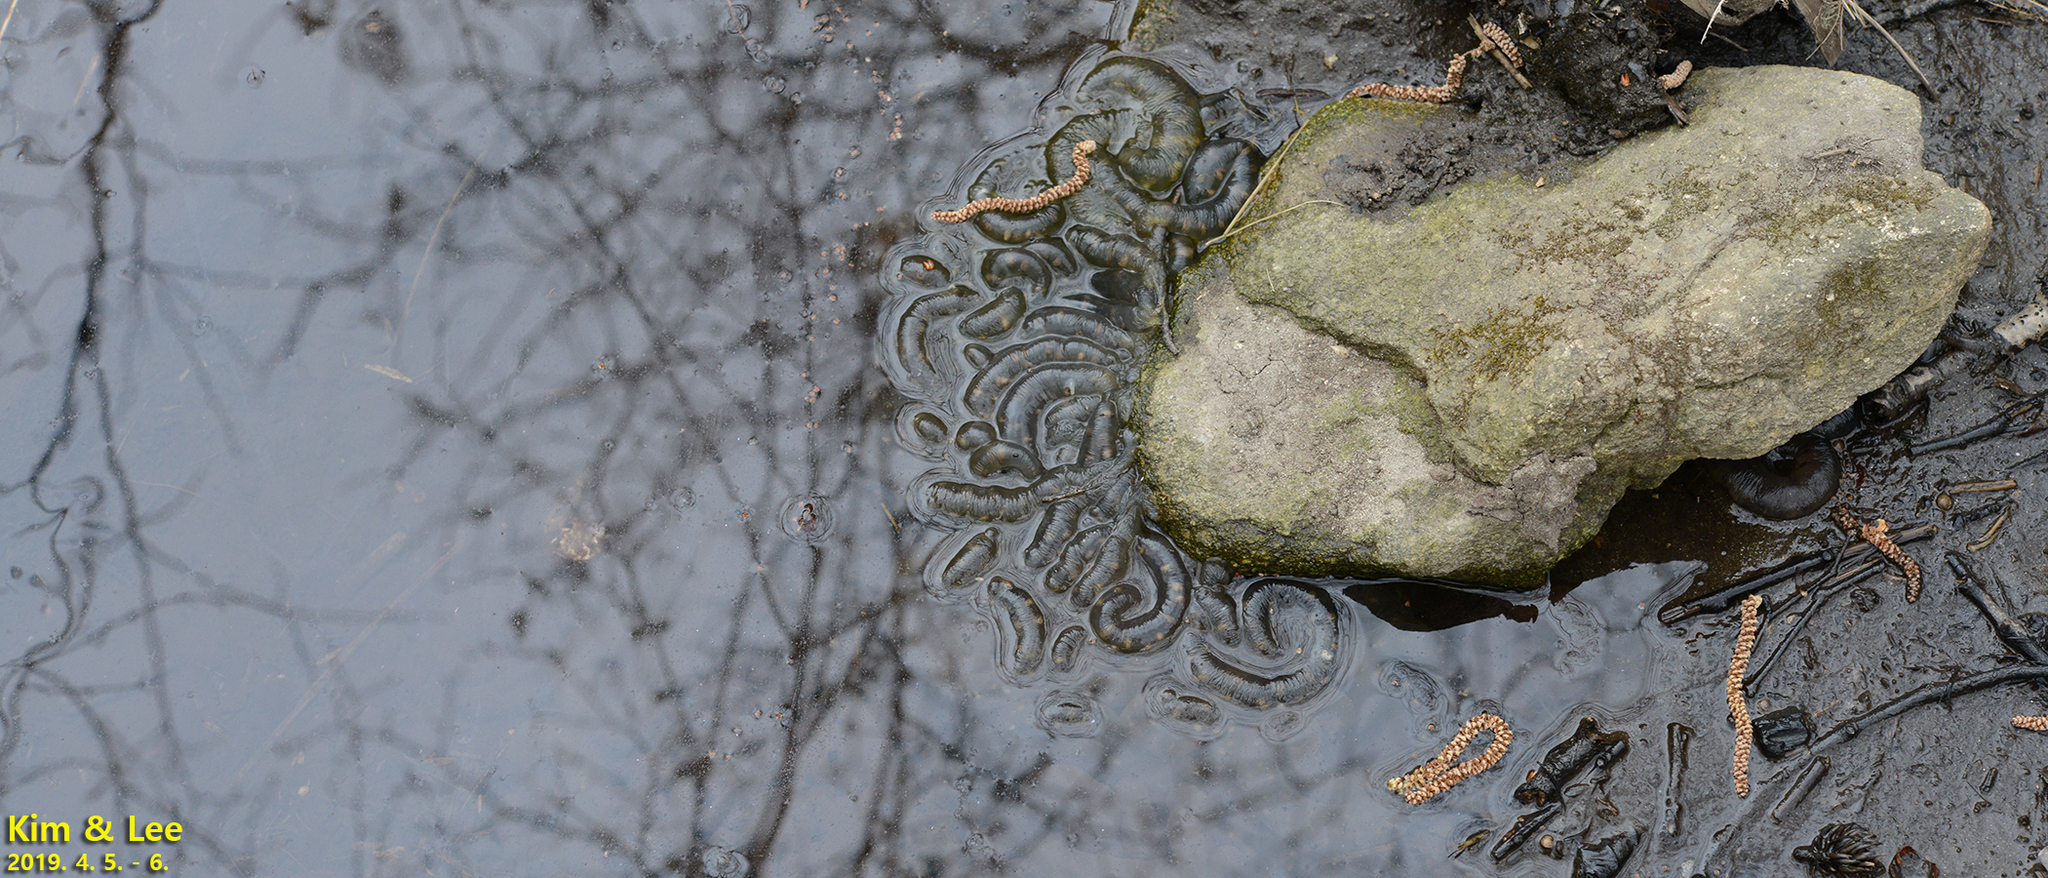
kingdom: Animalia
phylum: Chordata
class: Amphibia
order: Caudata
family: Hynobiidae
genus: Hynobius
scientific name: Hynobius leechii
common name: Gensan salamander
